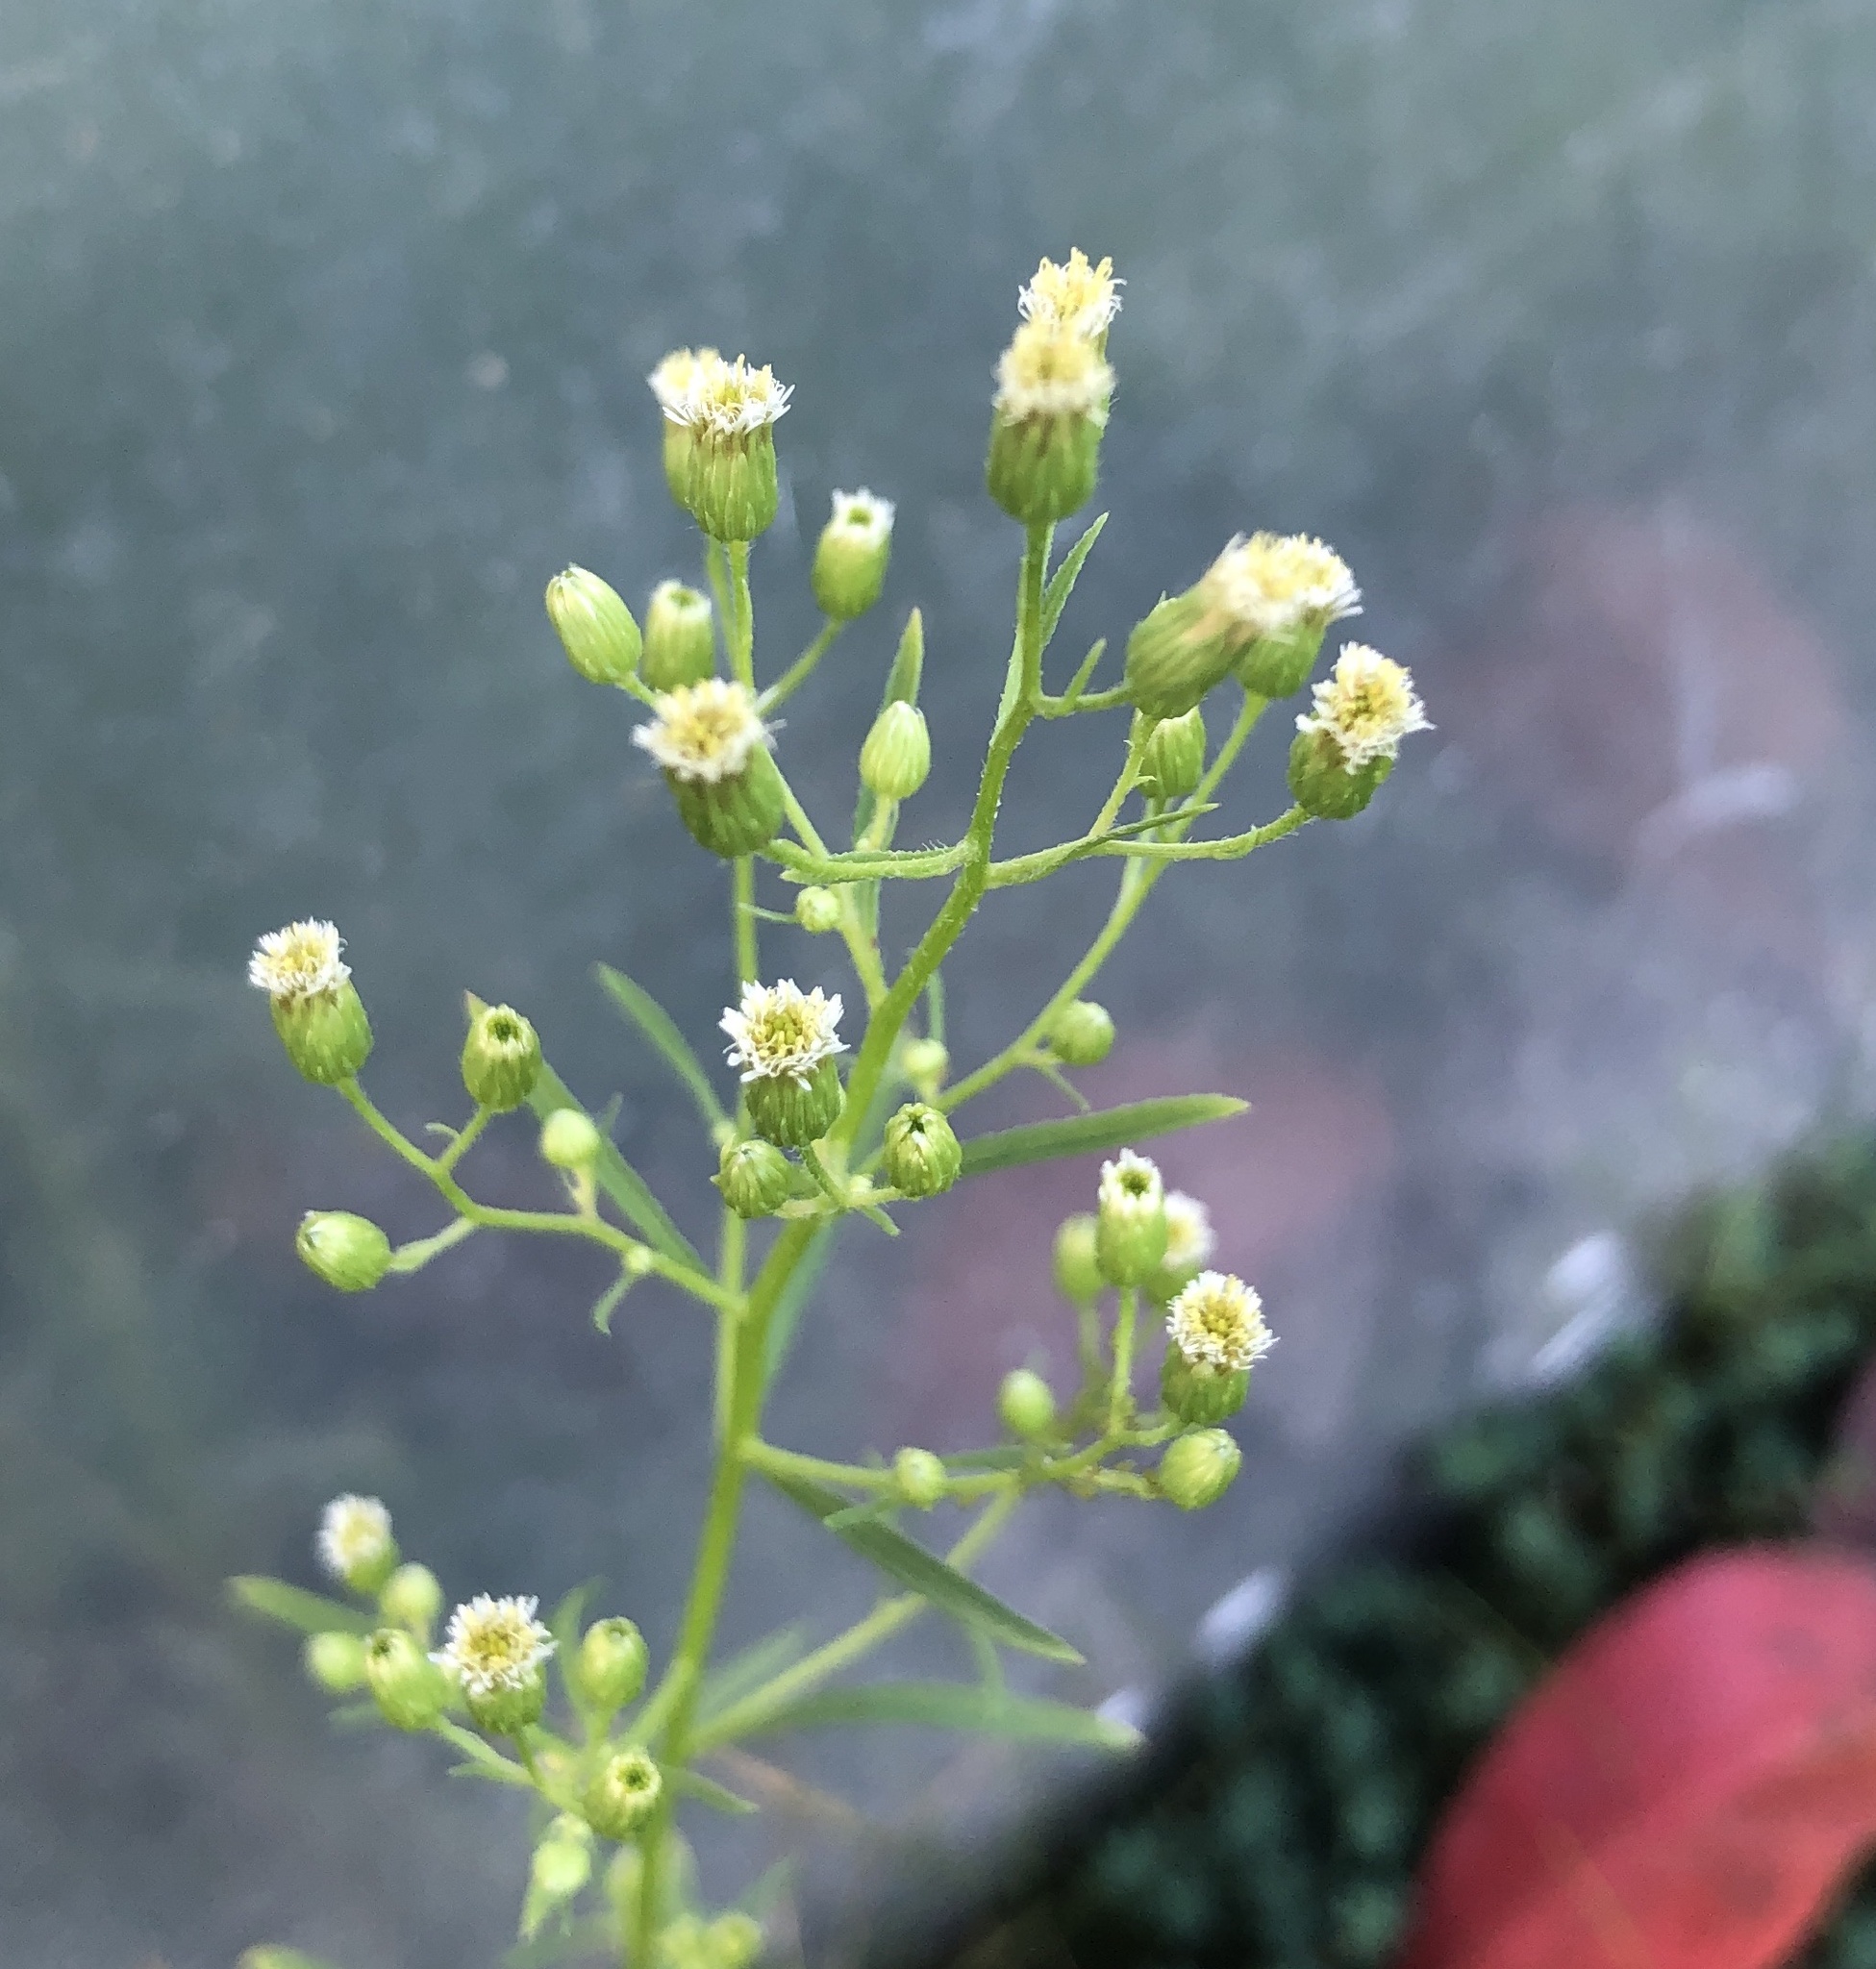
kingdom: Plantae
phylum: Tracheophyta
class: Magnoliopsida
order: Asterales
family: Asteraceae
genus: Erigeron
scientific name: Erigeron canadensis
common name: Canadian fleabane
